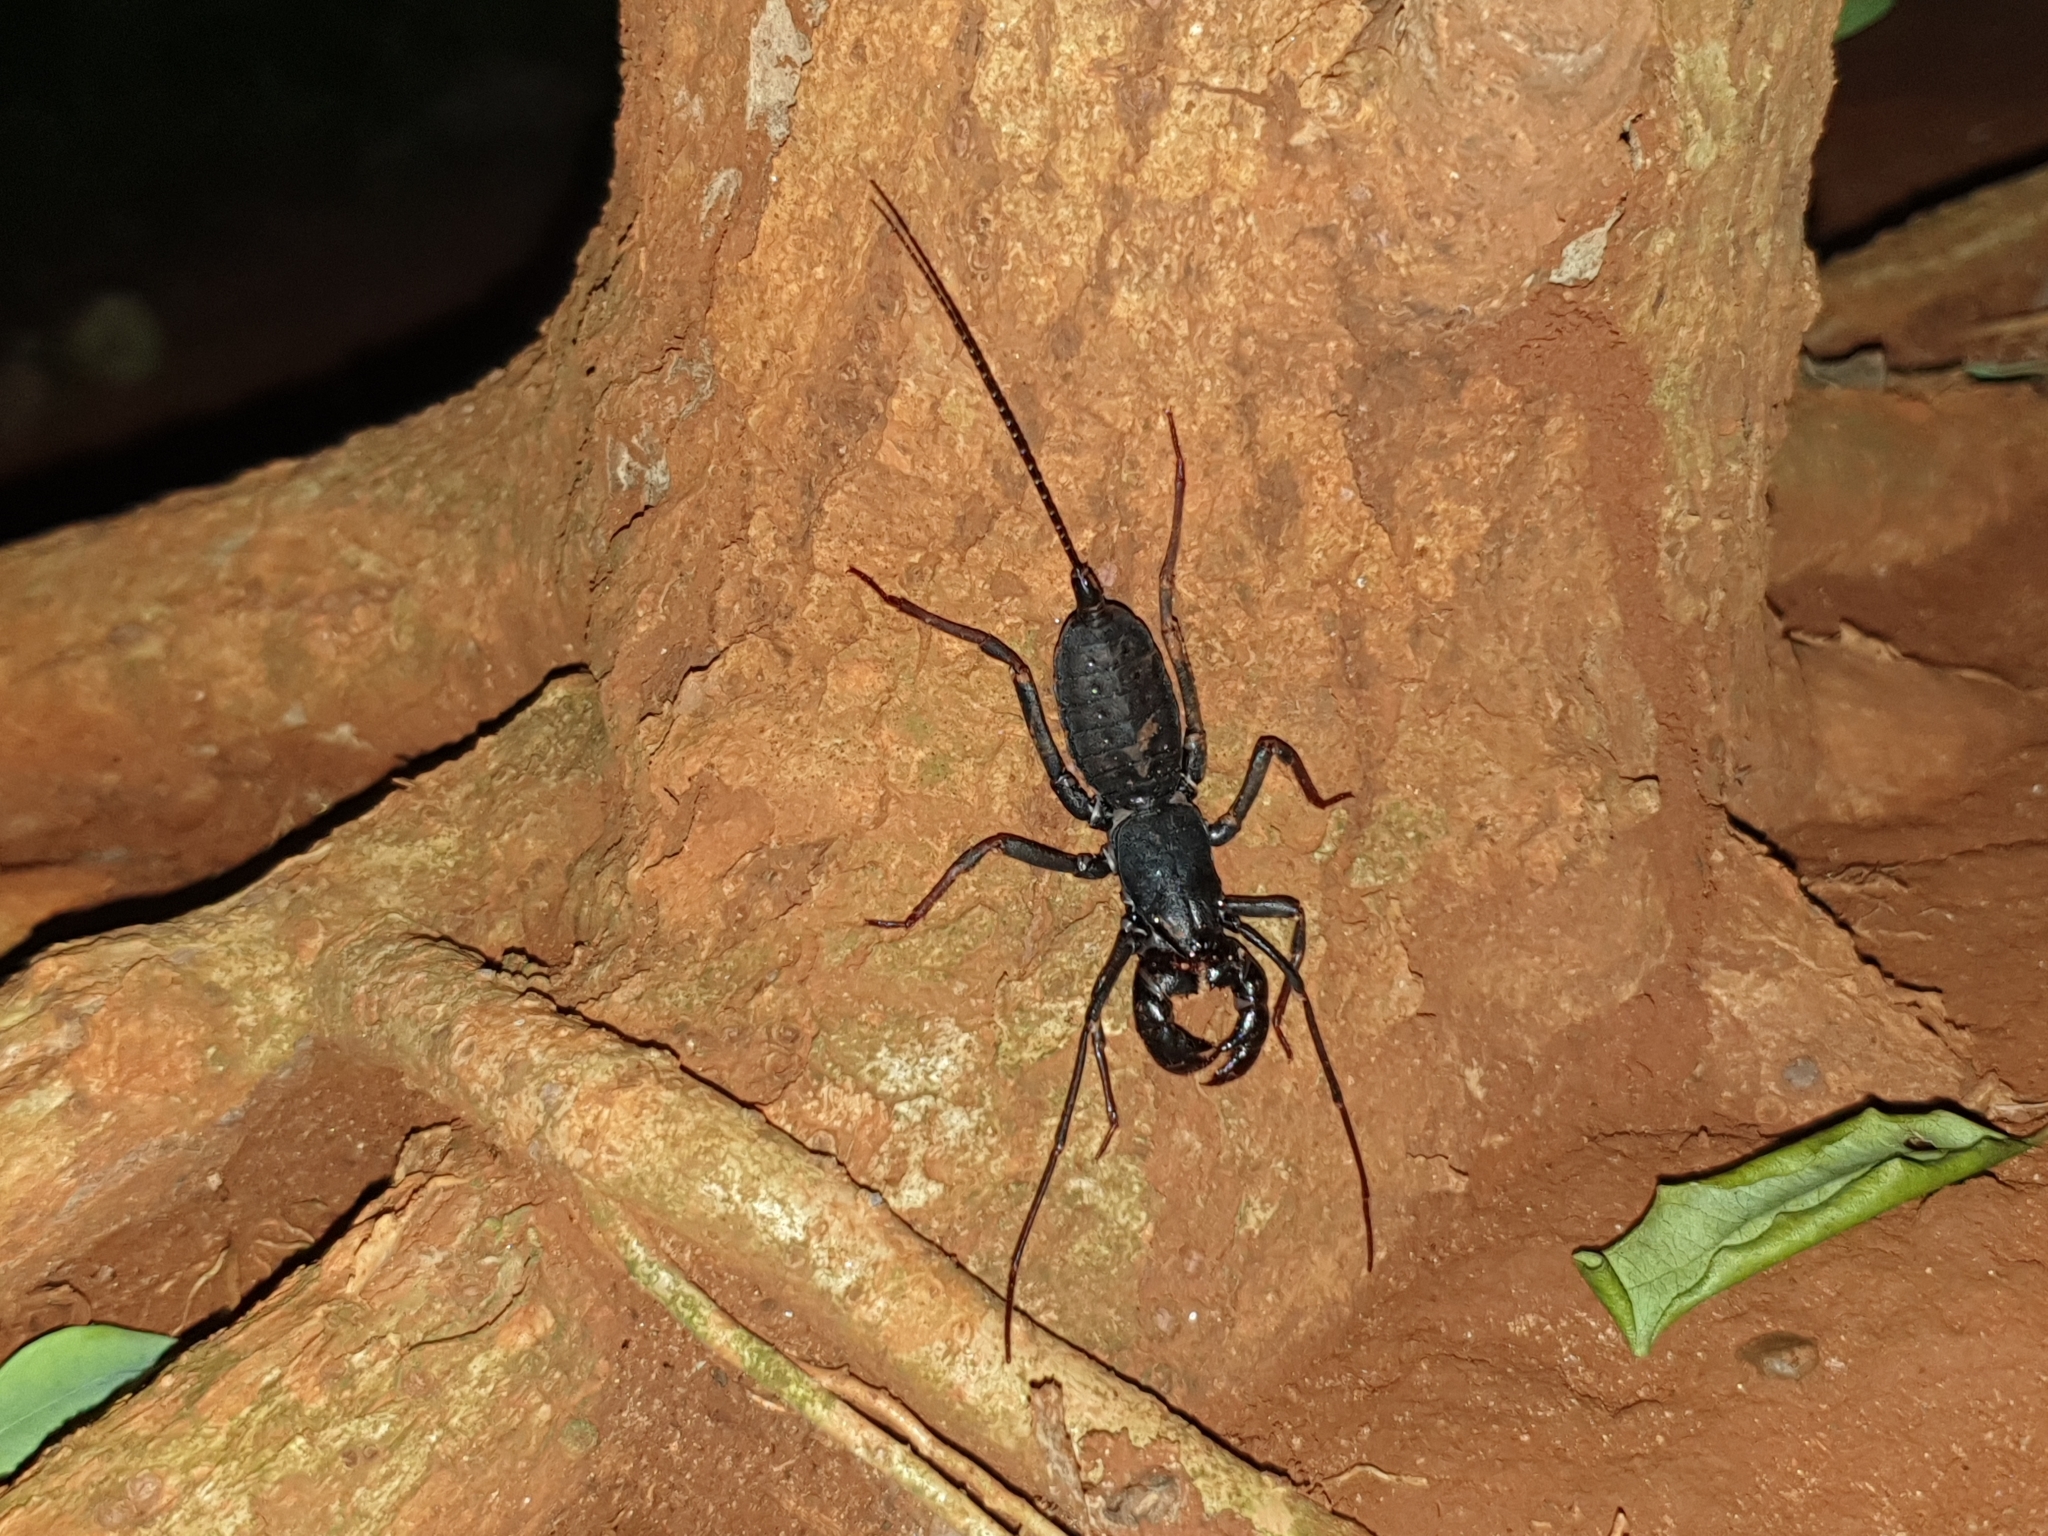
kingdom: Animalia
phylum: Arthropoda
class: Arachnida
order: Uropygi
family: Thelyphonidae
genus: Thelyphonus
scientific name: Thelyphonus sepiaris
